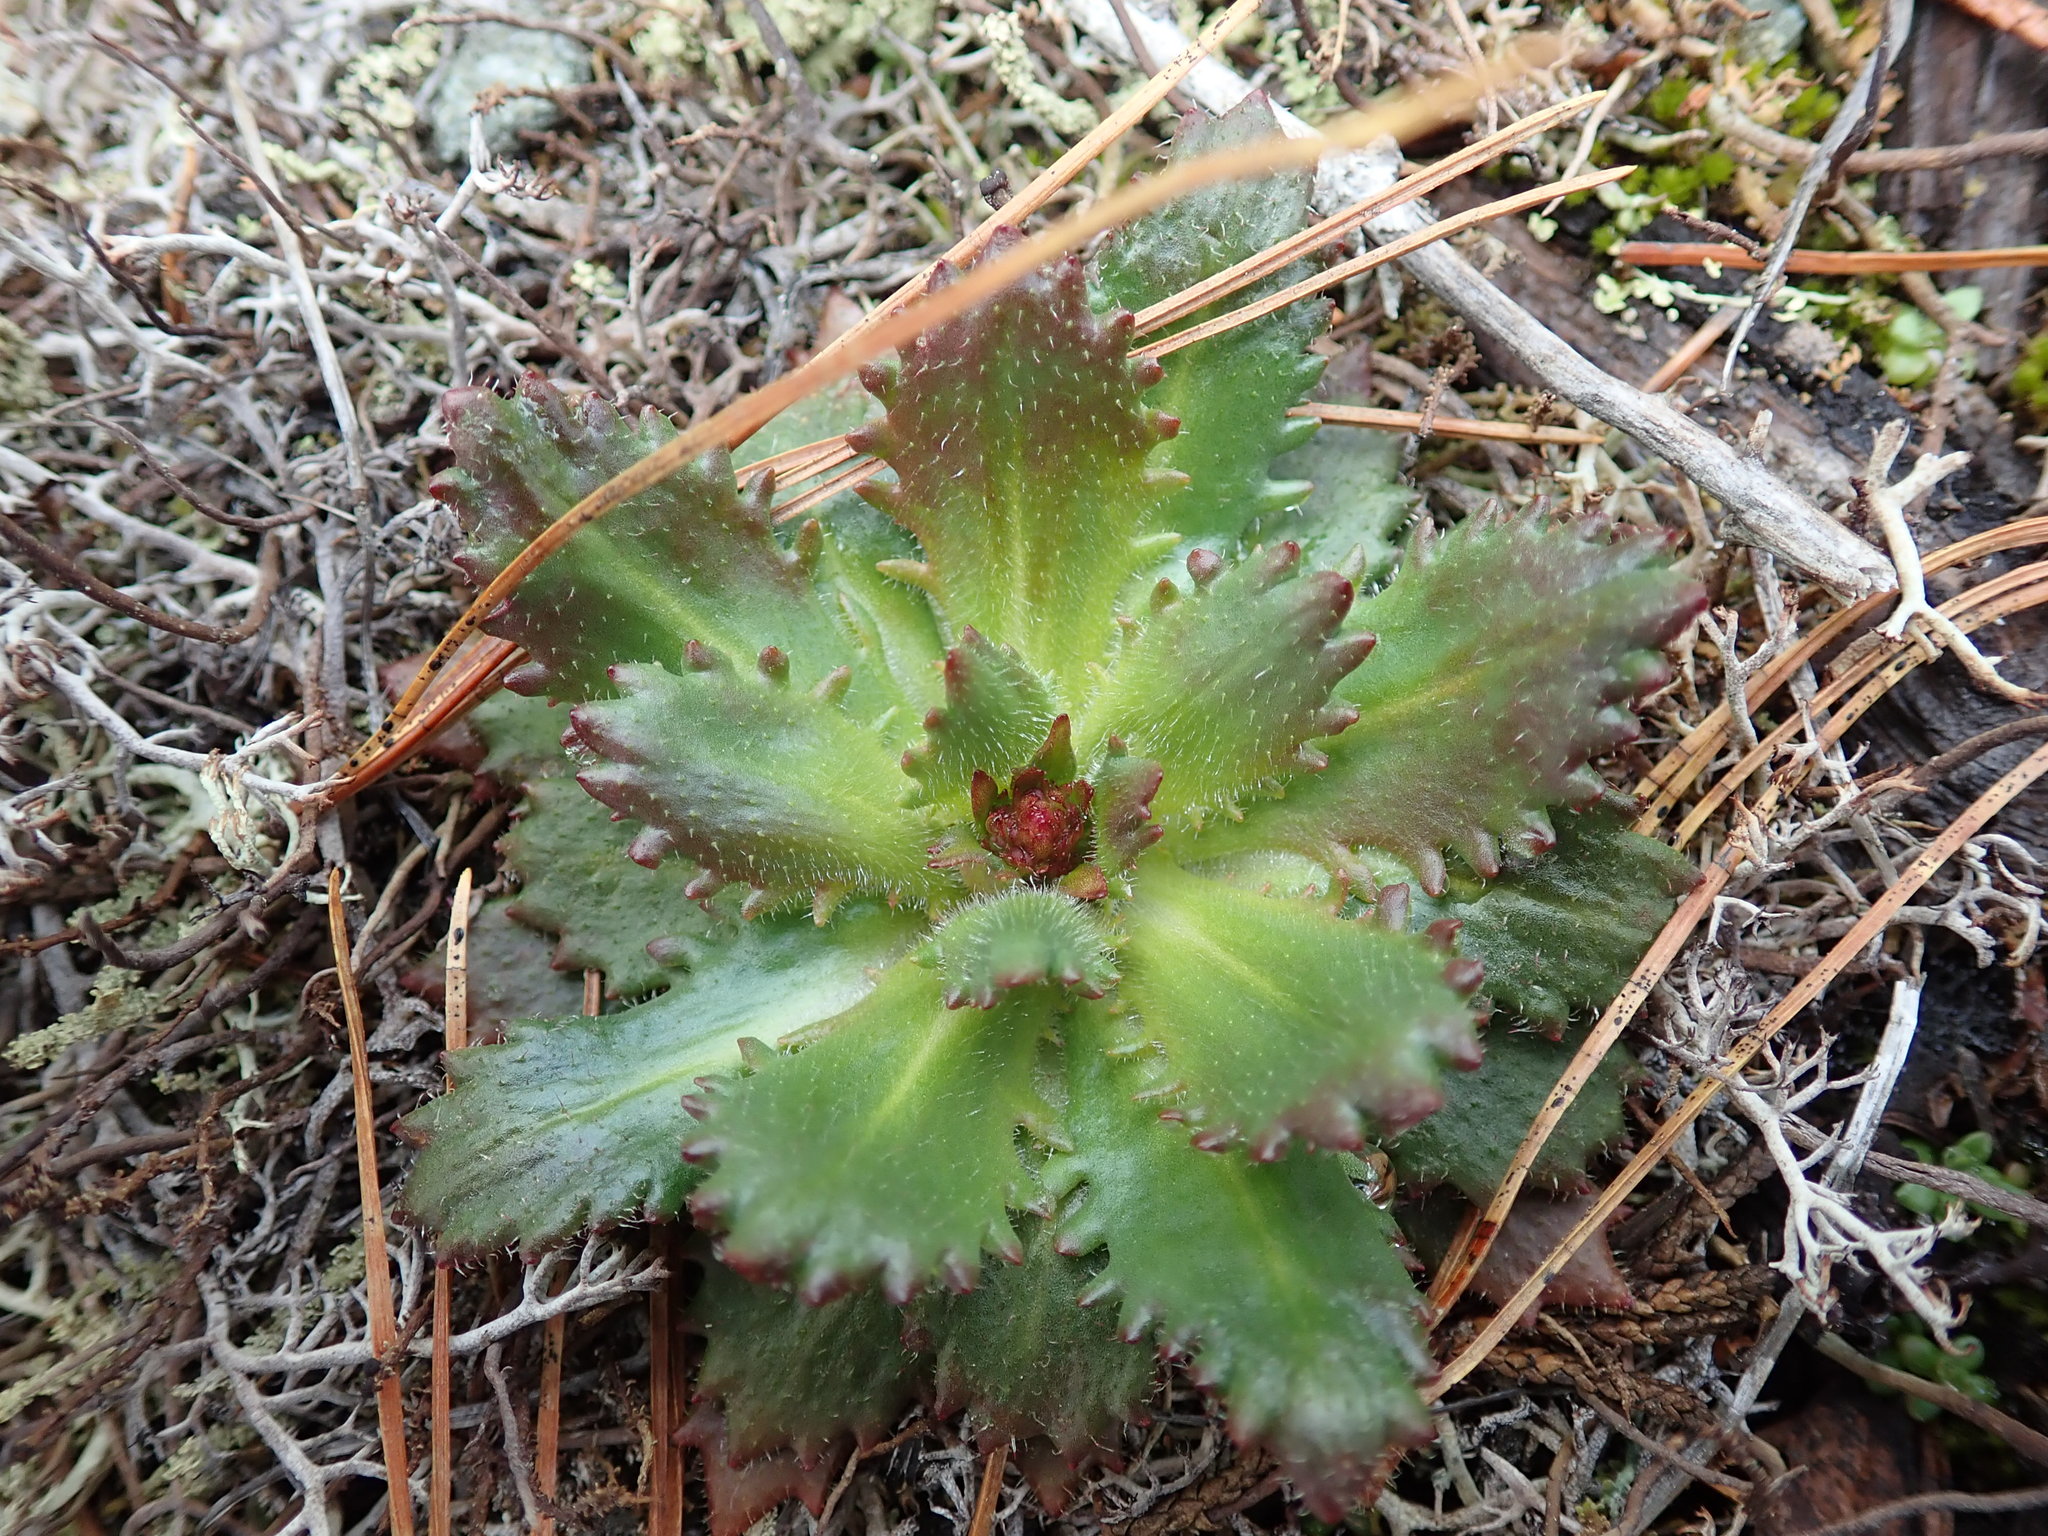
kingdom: Plantae
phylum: Tracheophyta
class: Magnoliopsida
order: Saxifragales
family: Saxifragaceae
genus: Micranthes
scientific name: Micranthes ferruginea
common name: Rusty saxifrage
